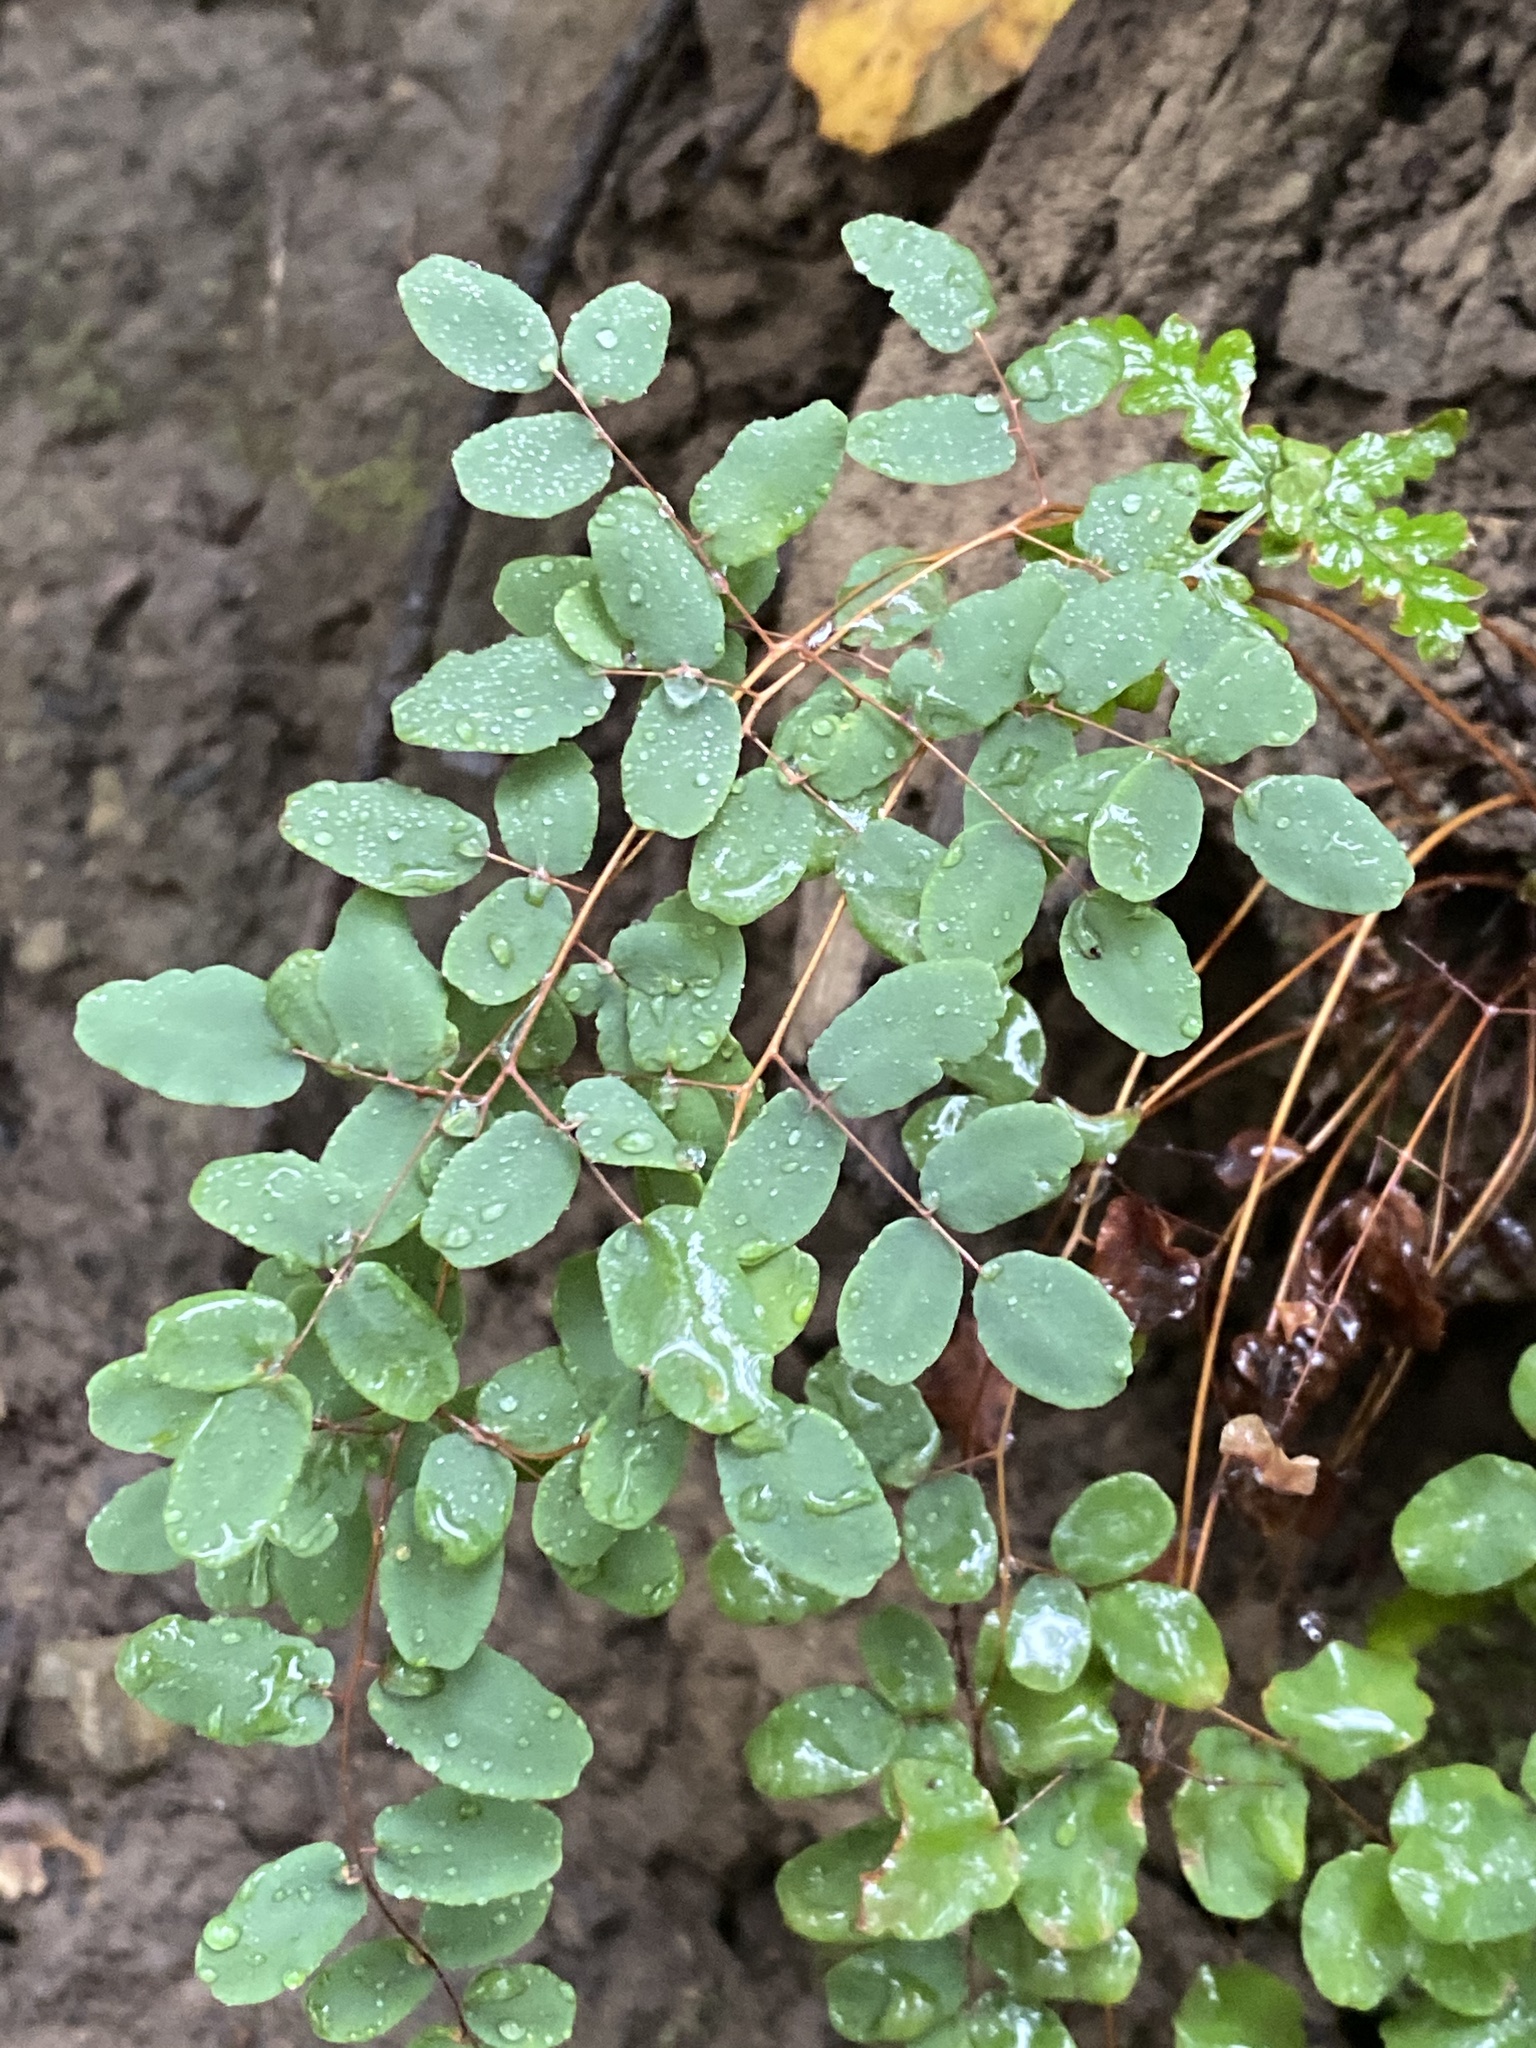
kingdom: Plantae
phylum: Tracheophyta
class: Polypodiopsida
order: Polypodiales
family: Pteridaceae
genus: Pellaea
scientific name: Pellaea andromedifolia
